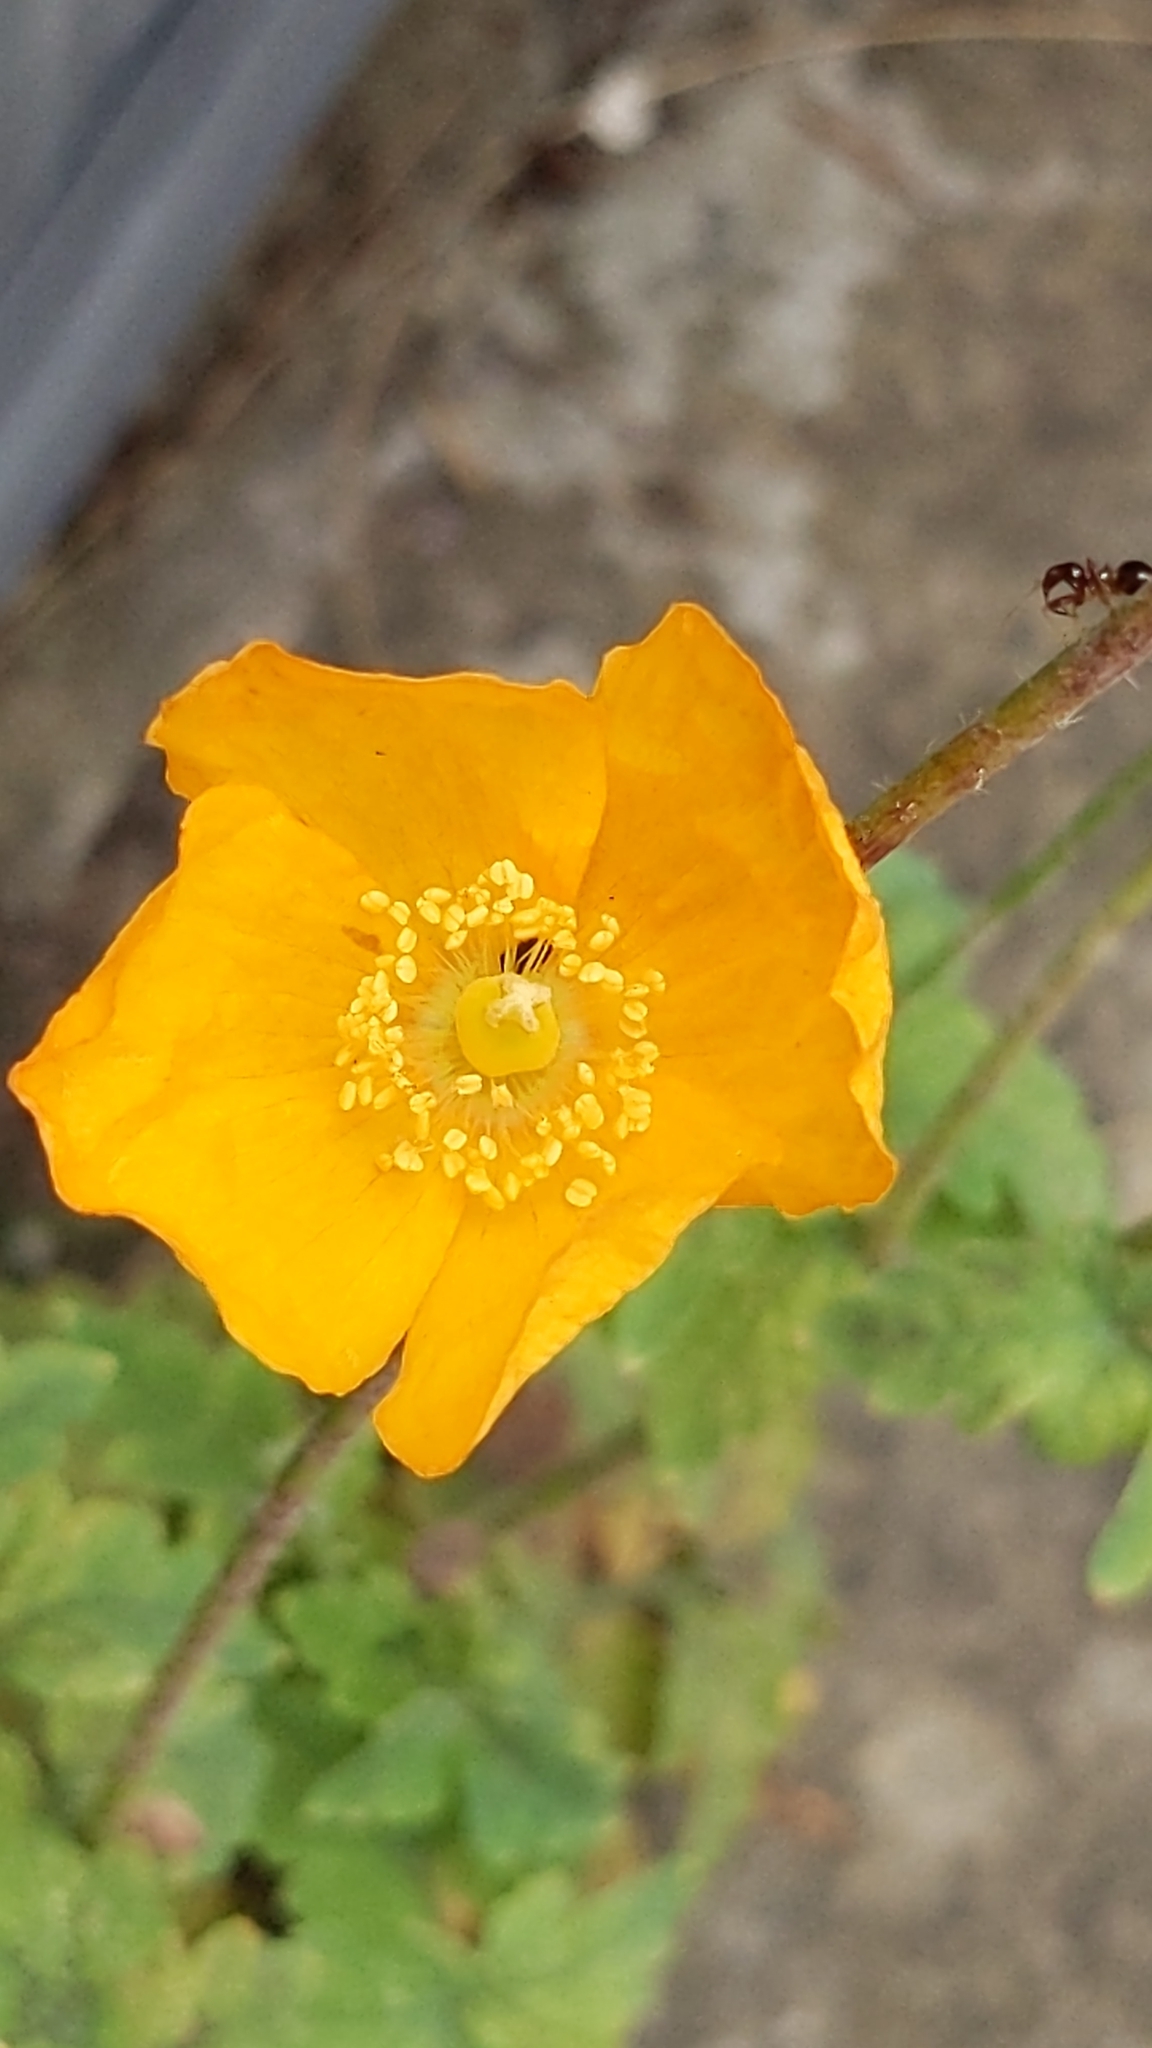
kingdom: Plantae
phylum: Tracheophyta
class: Magnoliopsida
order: Ranunculales
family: Papaveraceae
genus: Papaver
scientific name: Papaver cambricum
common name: Poppy
